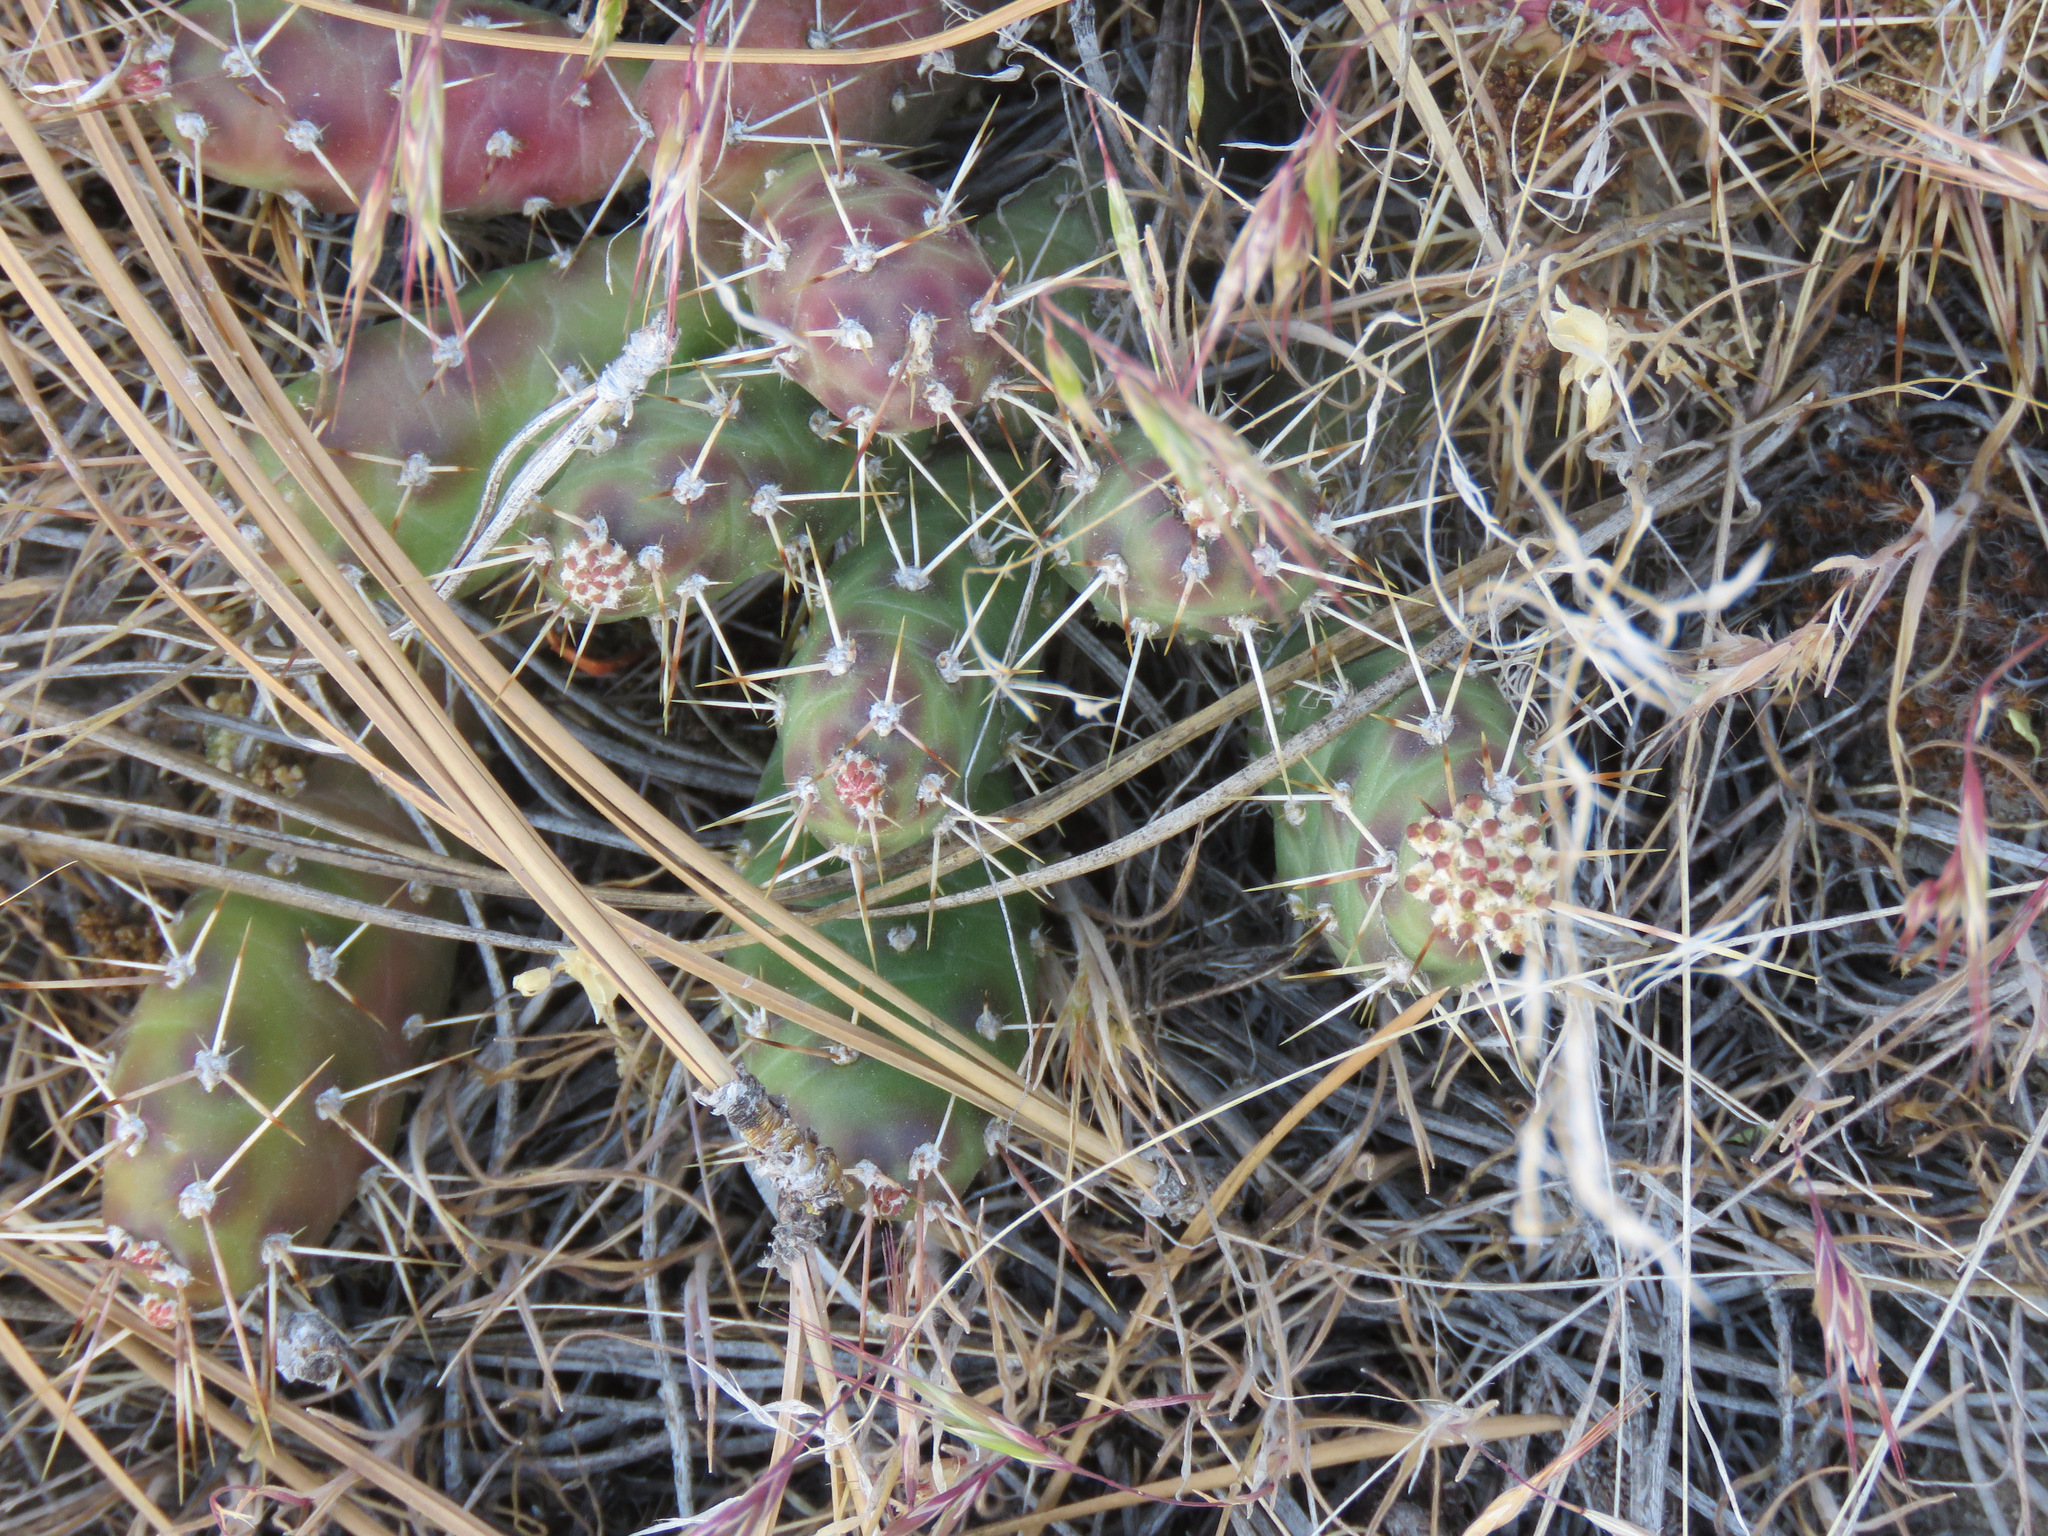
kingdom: Plantae
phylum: Tracheophyta
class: Magnoliopsida
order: Caryophyllales
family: Cactaceae
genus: Opuntia
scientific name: Opuntia fragilis
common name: Brittle cactus
